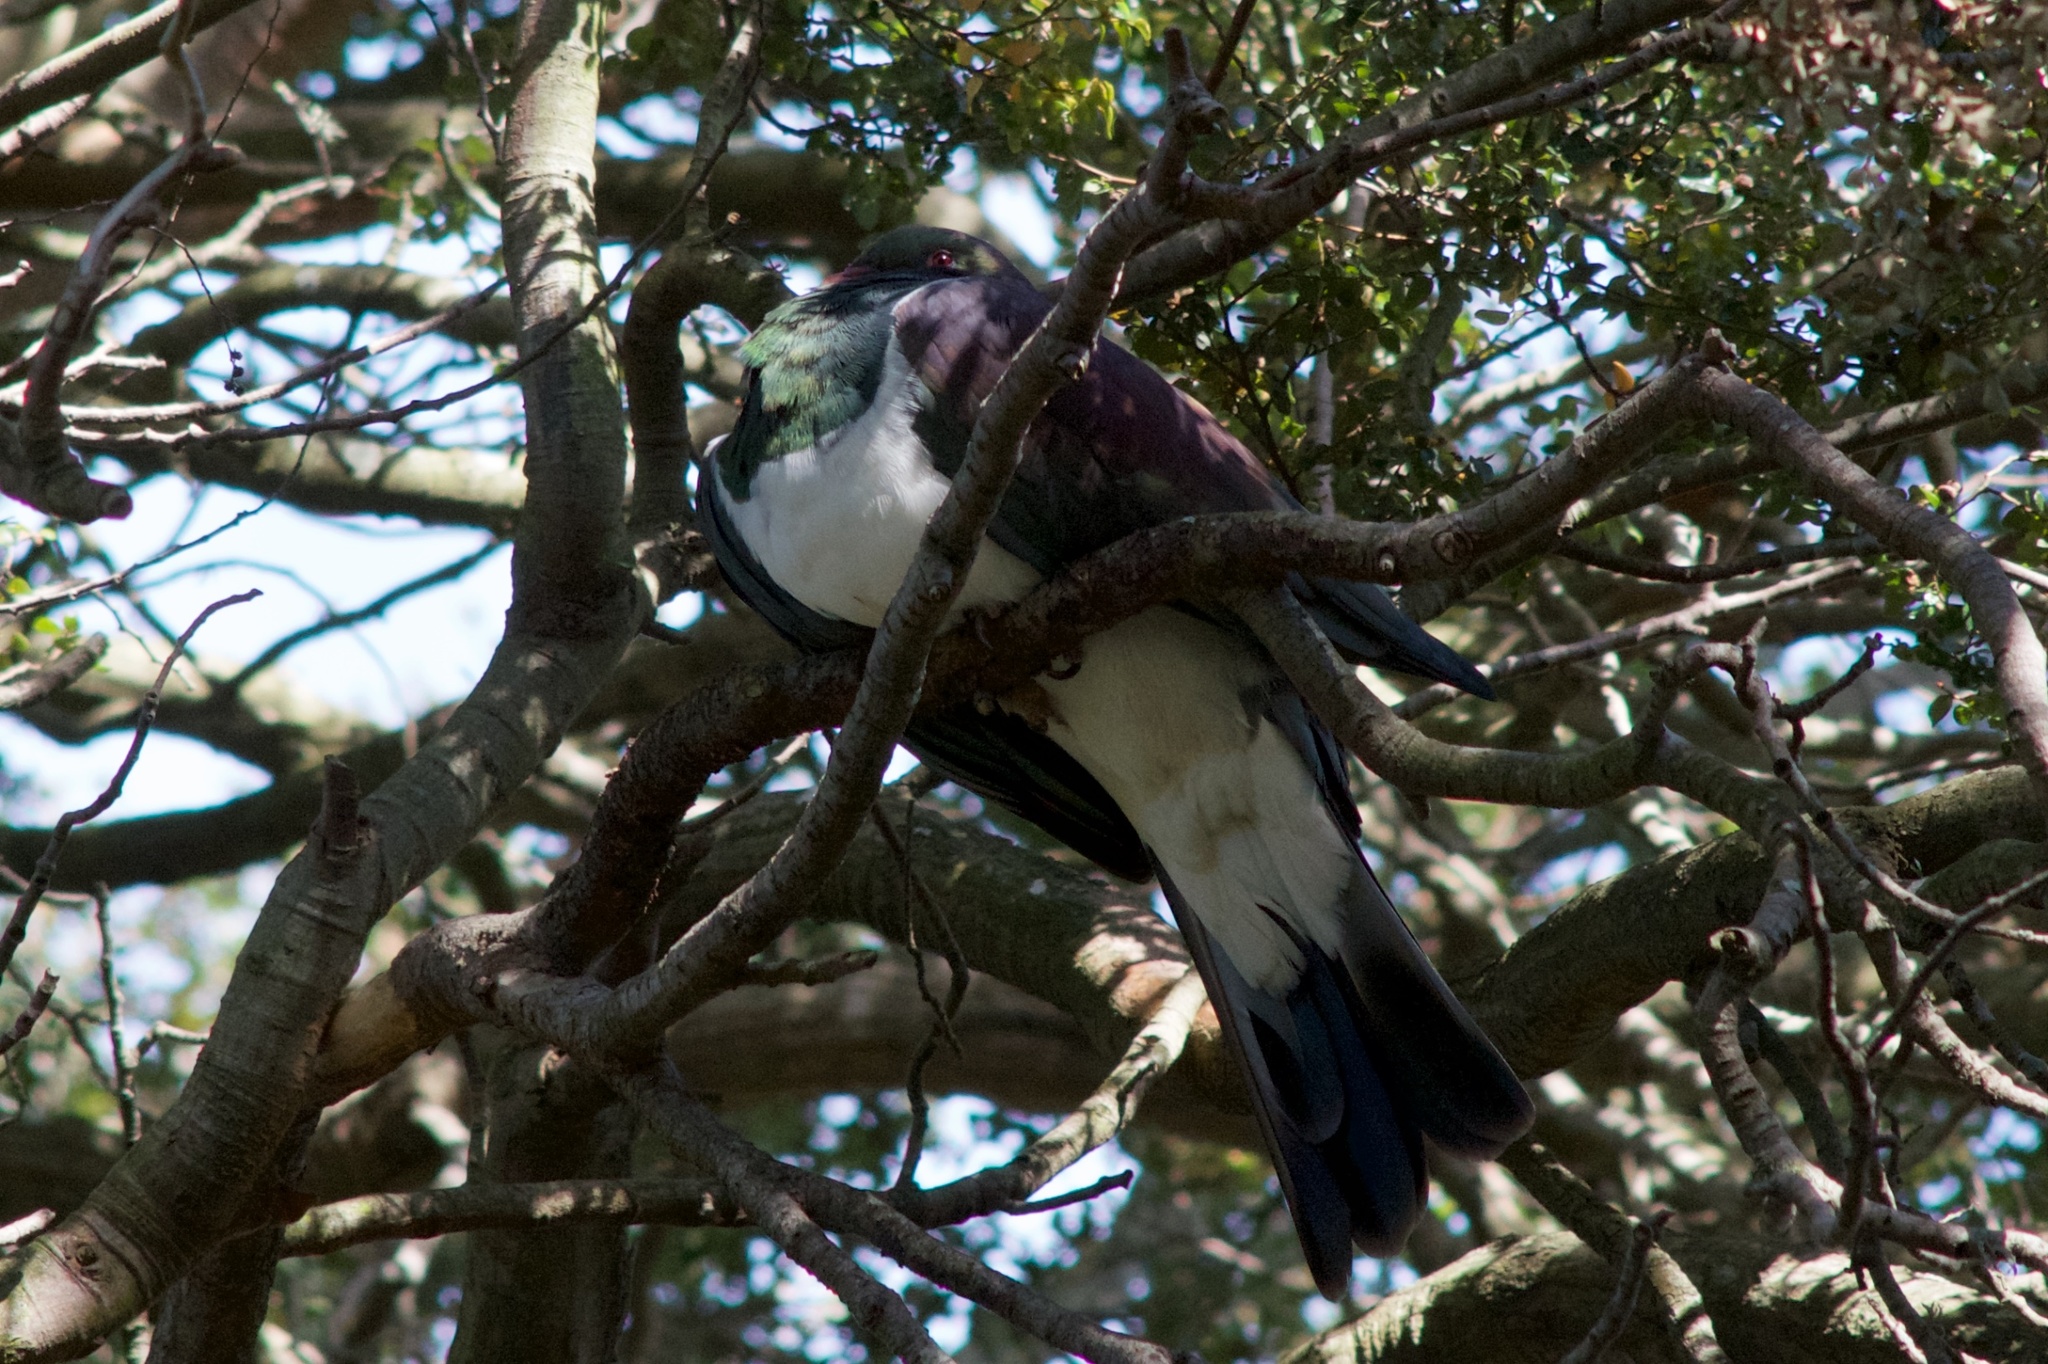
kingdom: Animalia
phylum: Chordata
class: Aves
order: Columbiformes
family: Columbidae
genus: Hemiphaga
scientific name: Hemiphaga novaeseelandiae
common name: New zealand pigeon
